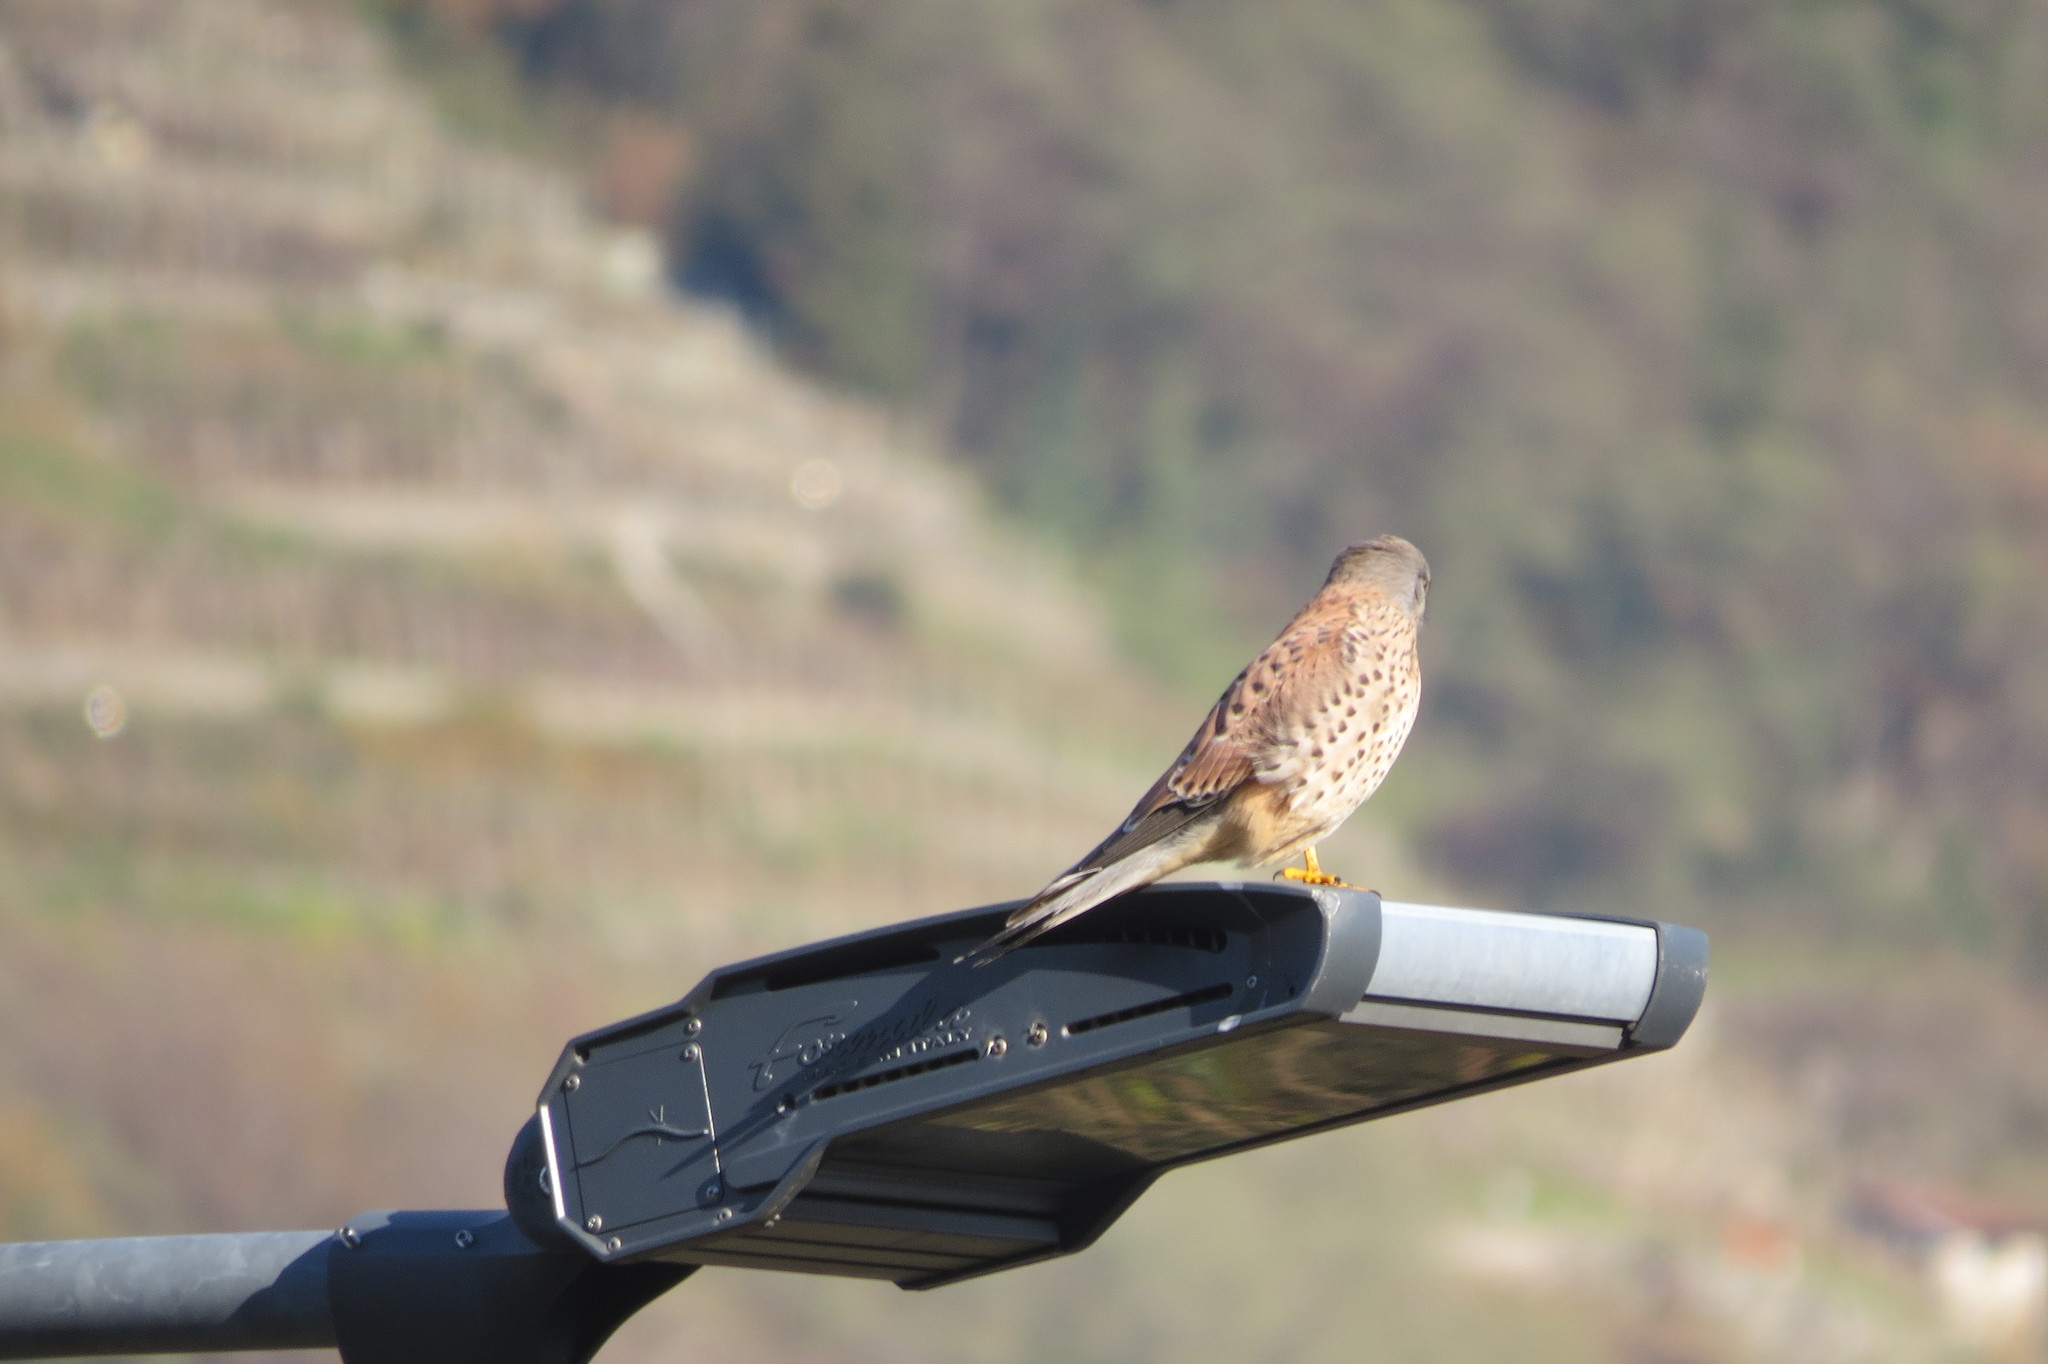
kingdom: Animalia
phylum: Chordata
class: Aves
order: Falconiformes
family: Falconidae
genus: Falco
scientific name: Falco tinnunculus
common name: Common kestrel
